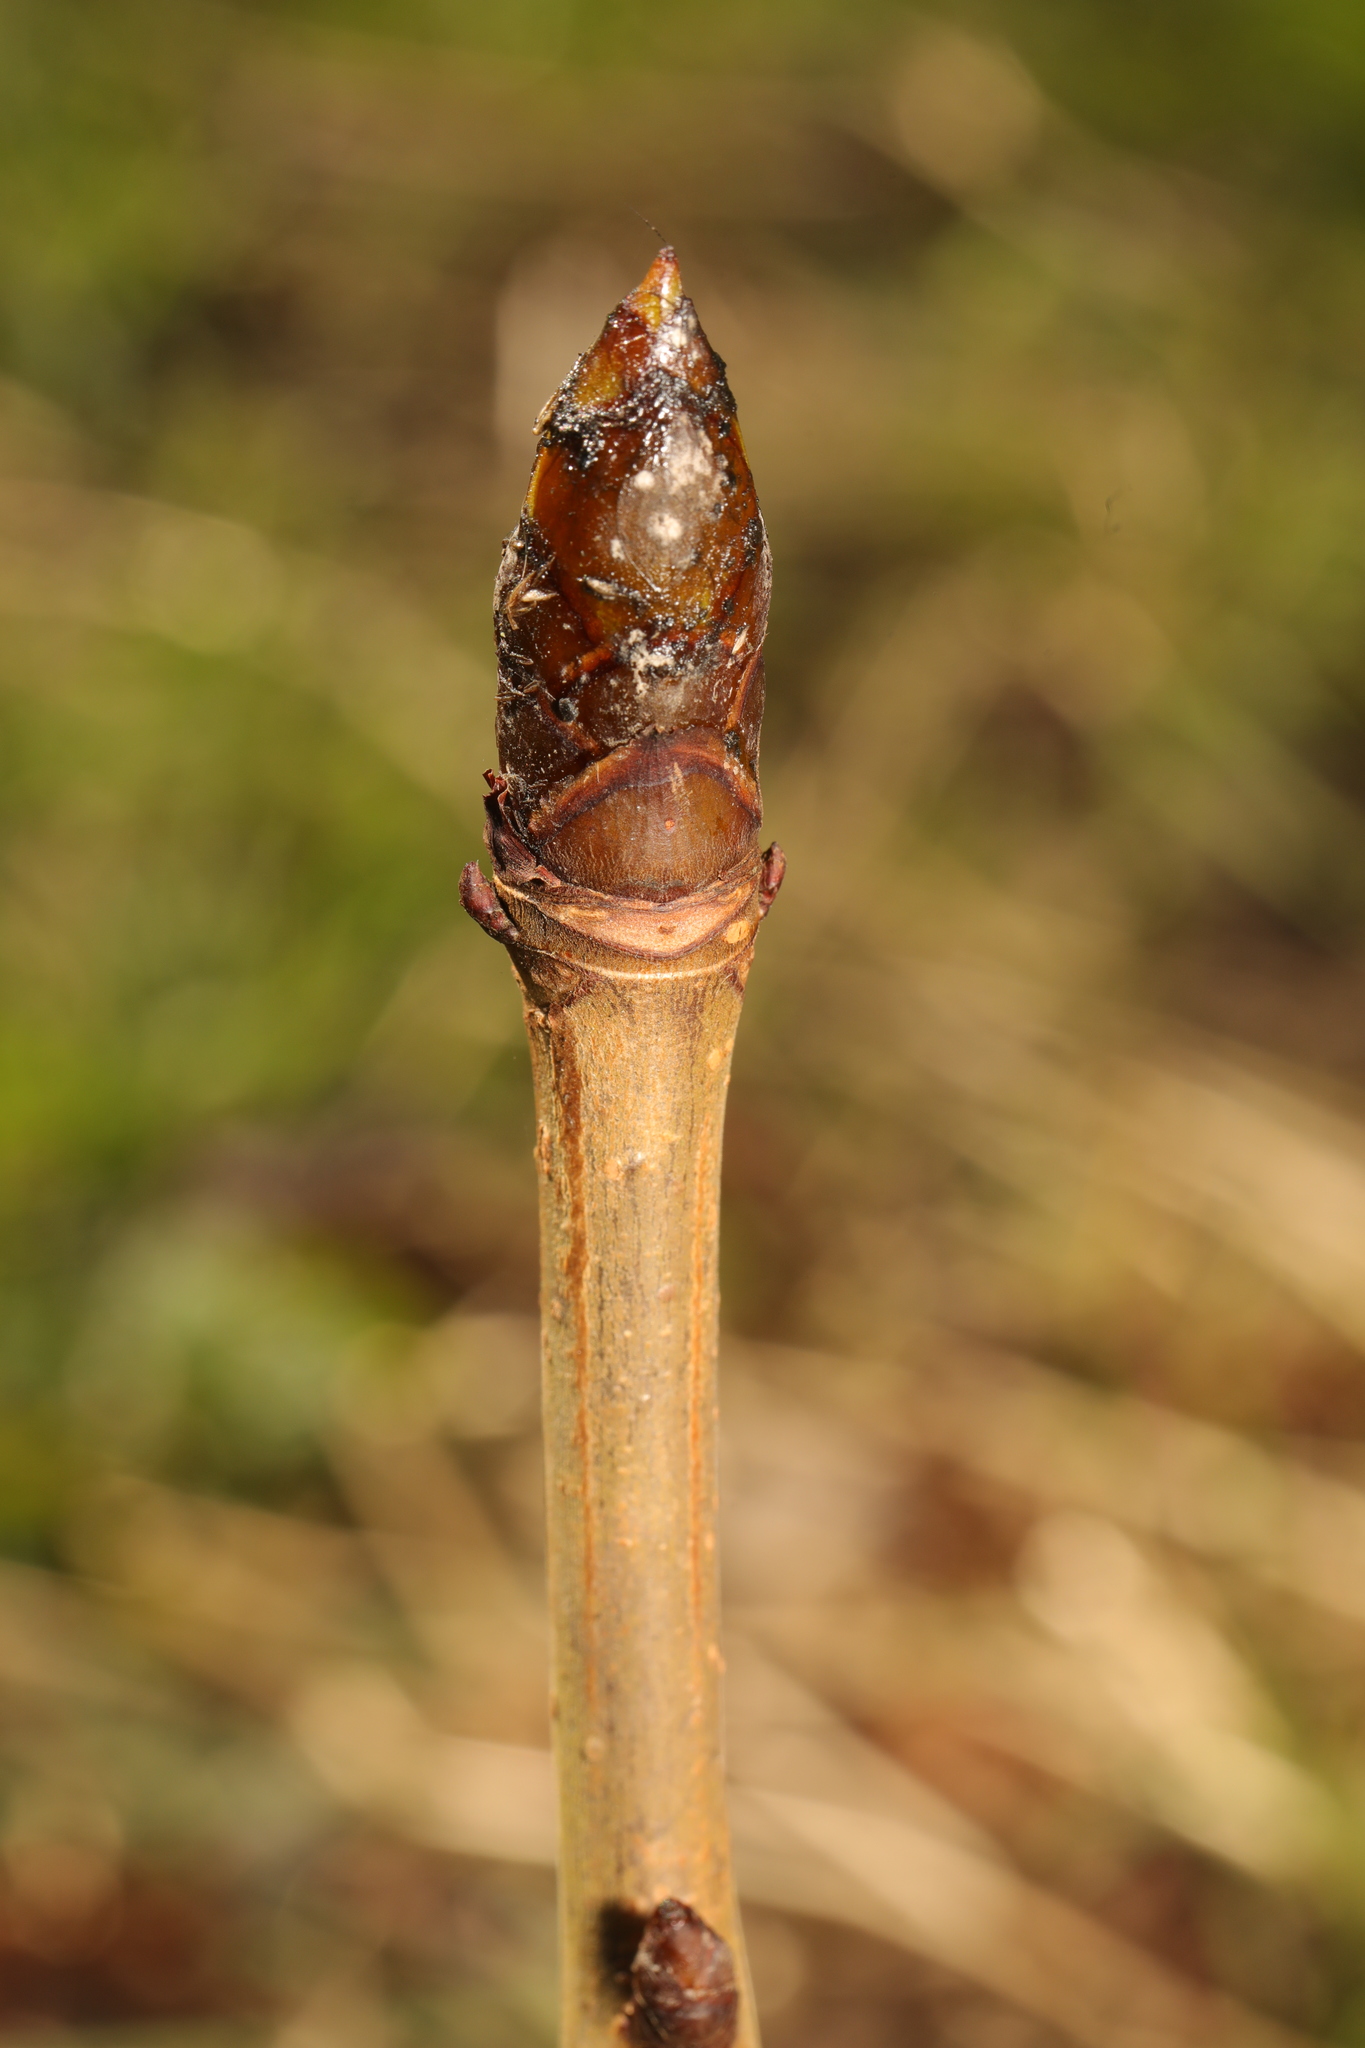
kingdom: Plantae
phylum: Tracheophyta
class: Magnoliopsida
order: Sapindales
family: Sapindaceae
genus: Aesculus
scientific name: Aesculus hippocastanum
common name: Horse-chestnut
